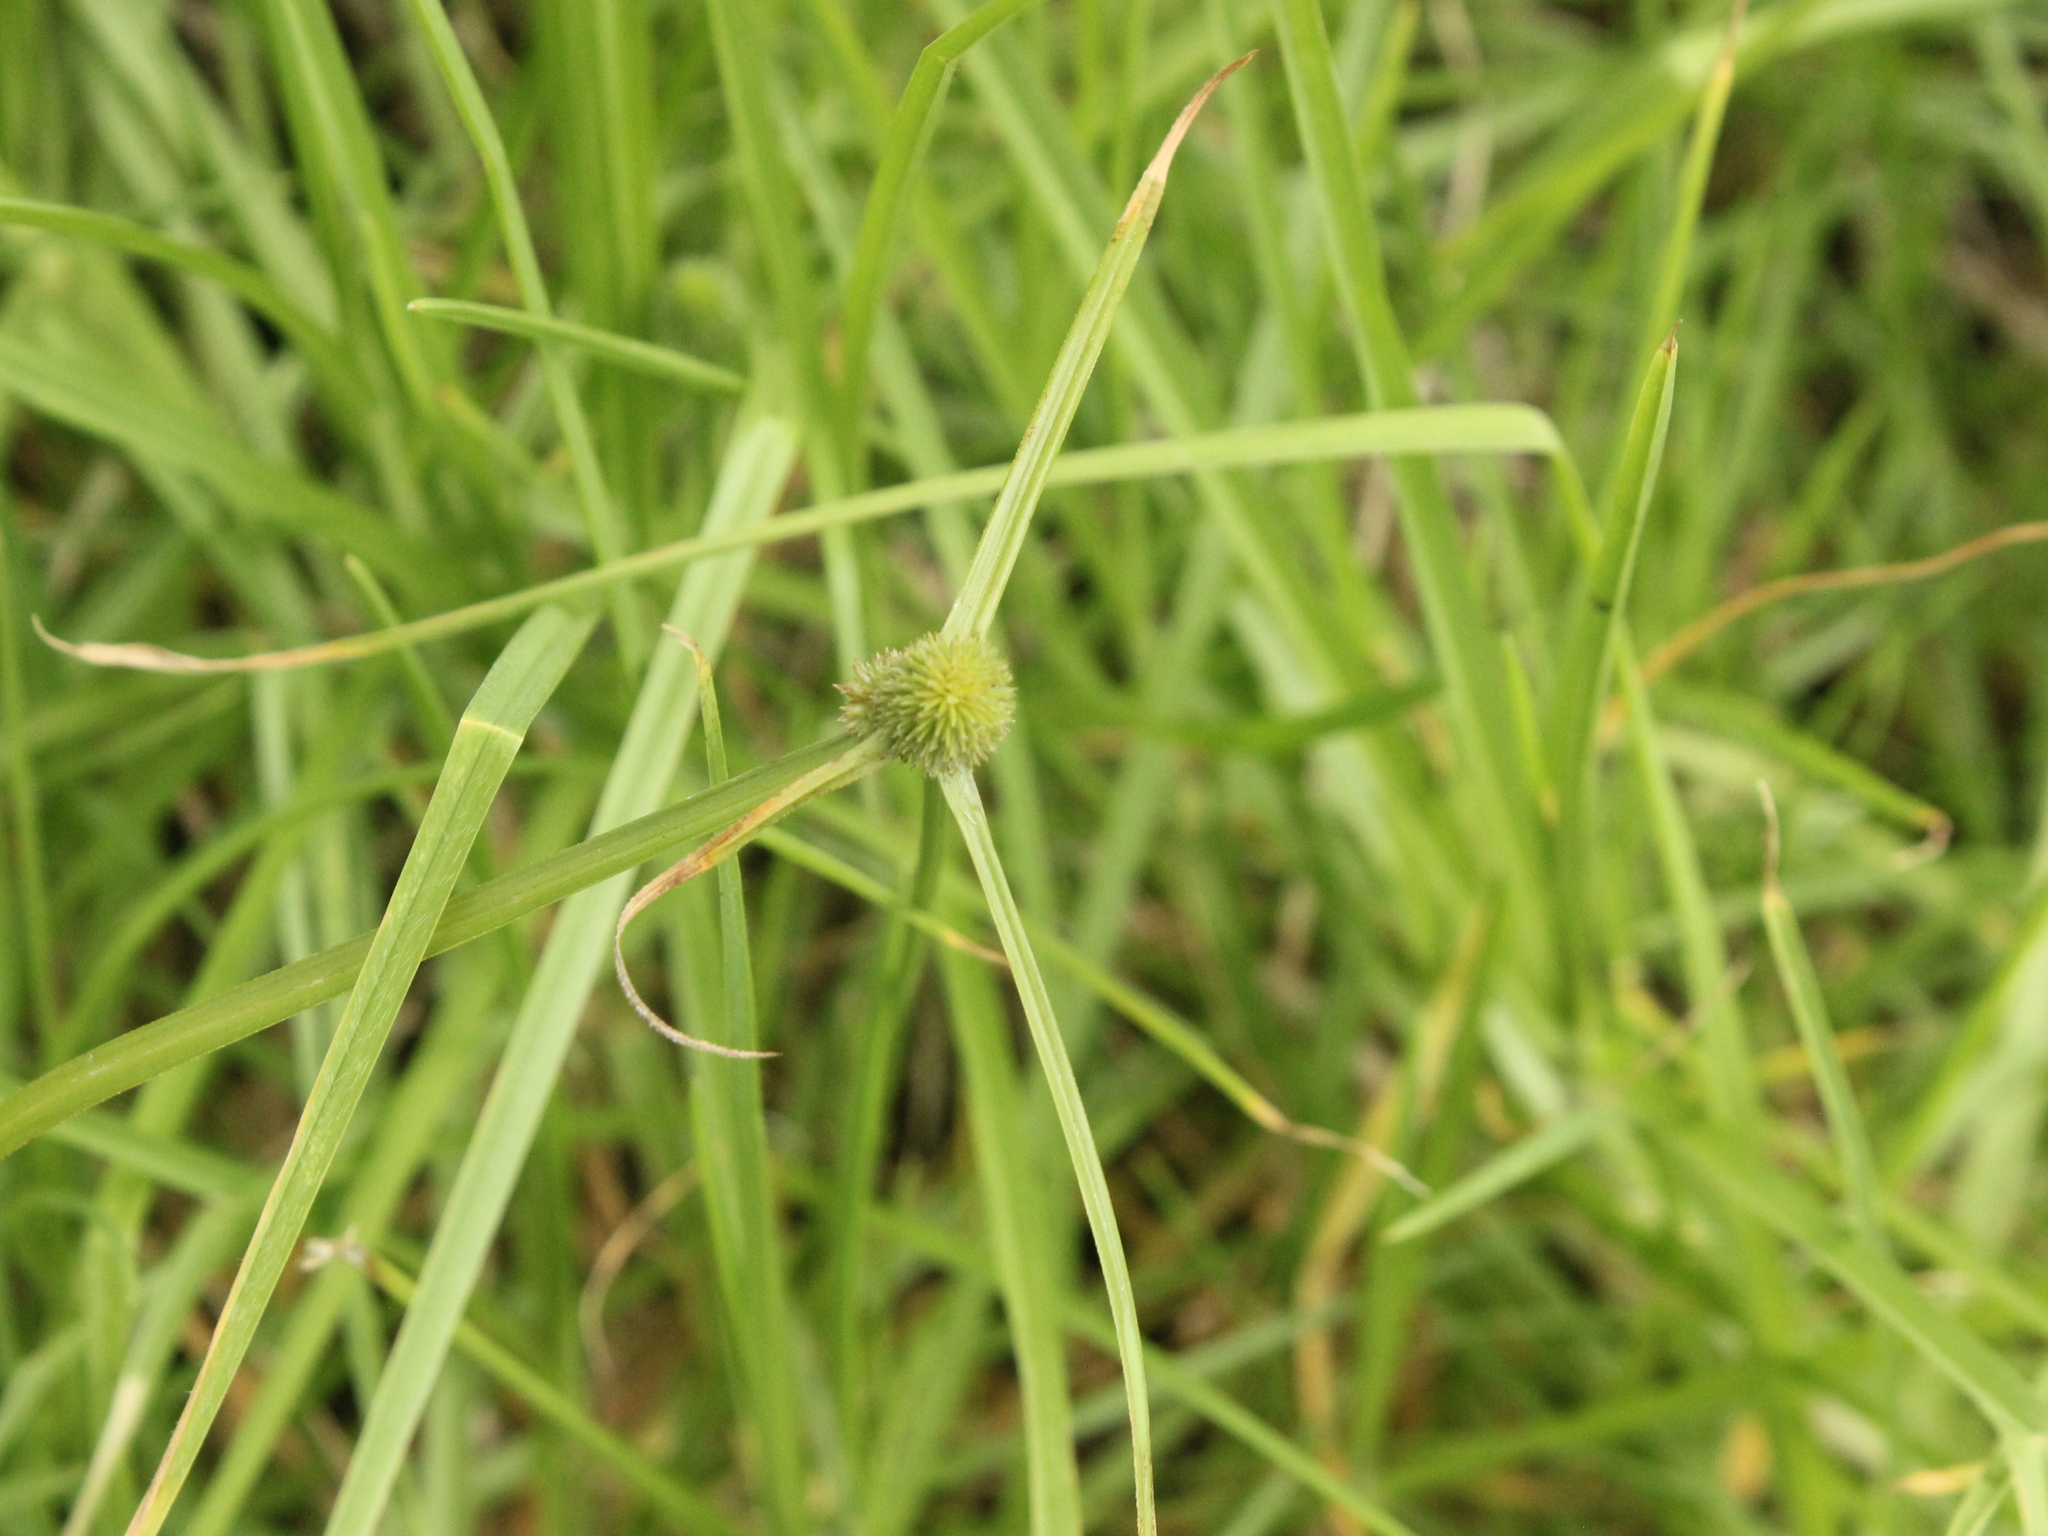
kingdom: Plantae
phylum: Tracheophyta
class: Liliopsida
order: Poales
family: Cyperaceae
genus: Cyperus
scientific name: Cyperus brevifolius
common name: Globe kyllinga
